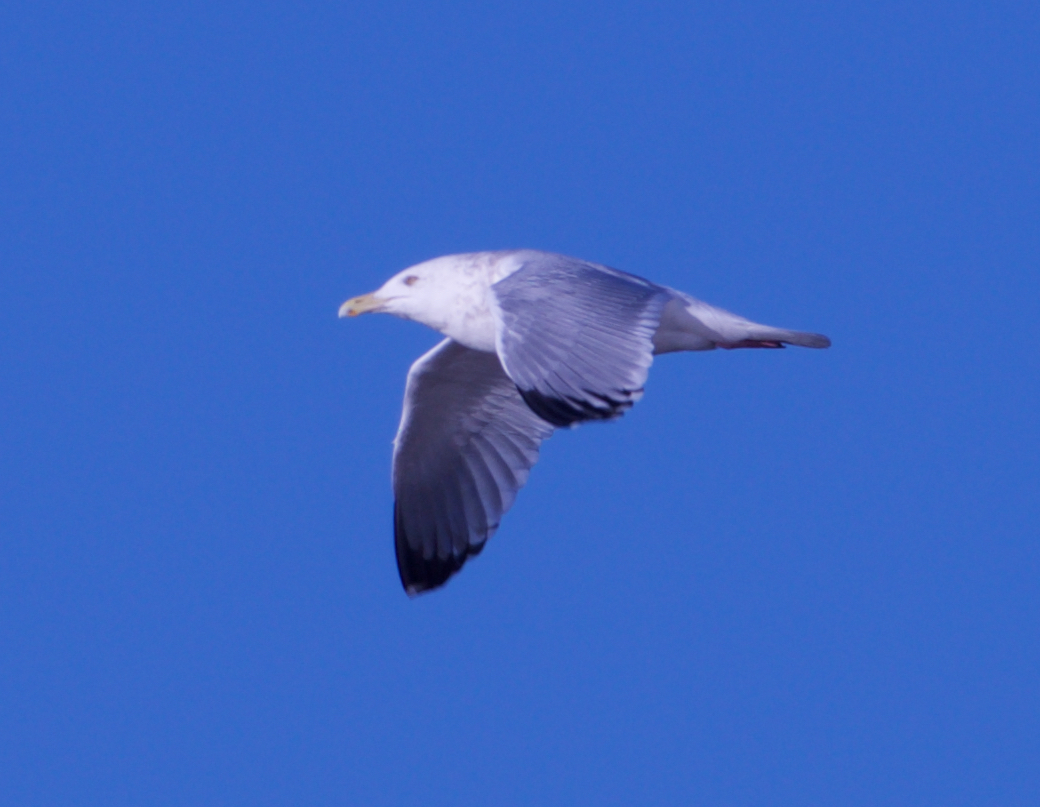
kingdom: Animalia
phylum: Chordata
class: Aves
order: Charadriiformes
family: Laridae
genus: Larus
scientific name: Larus argentatus
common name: Herring gull
